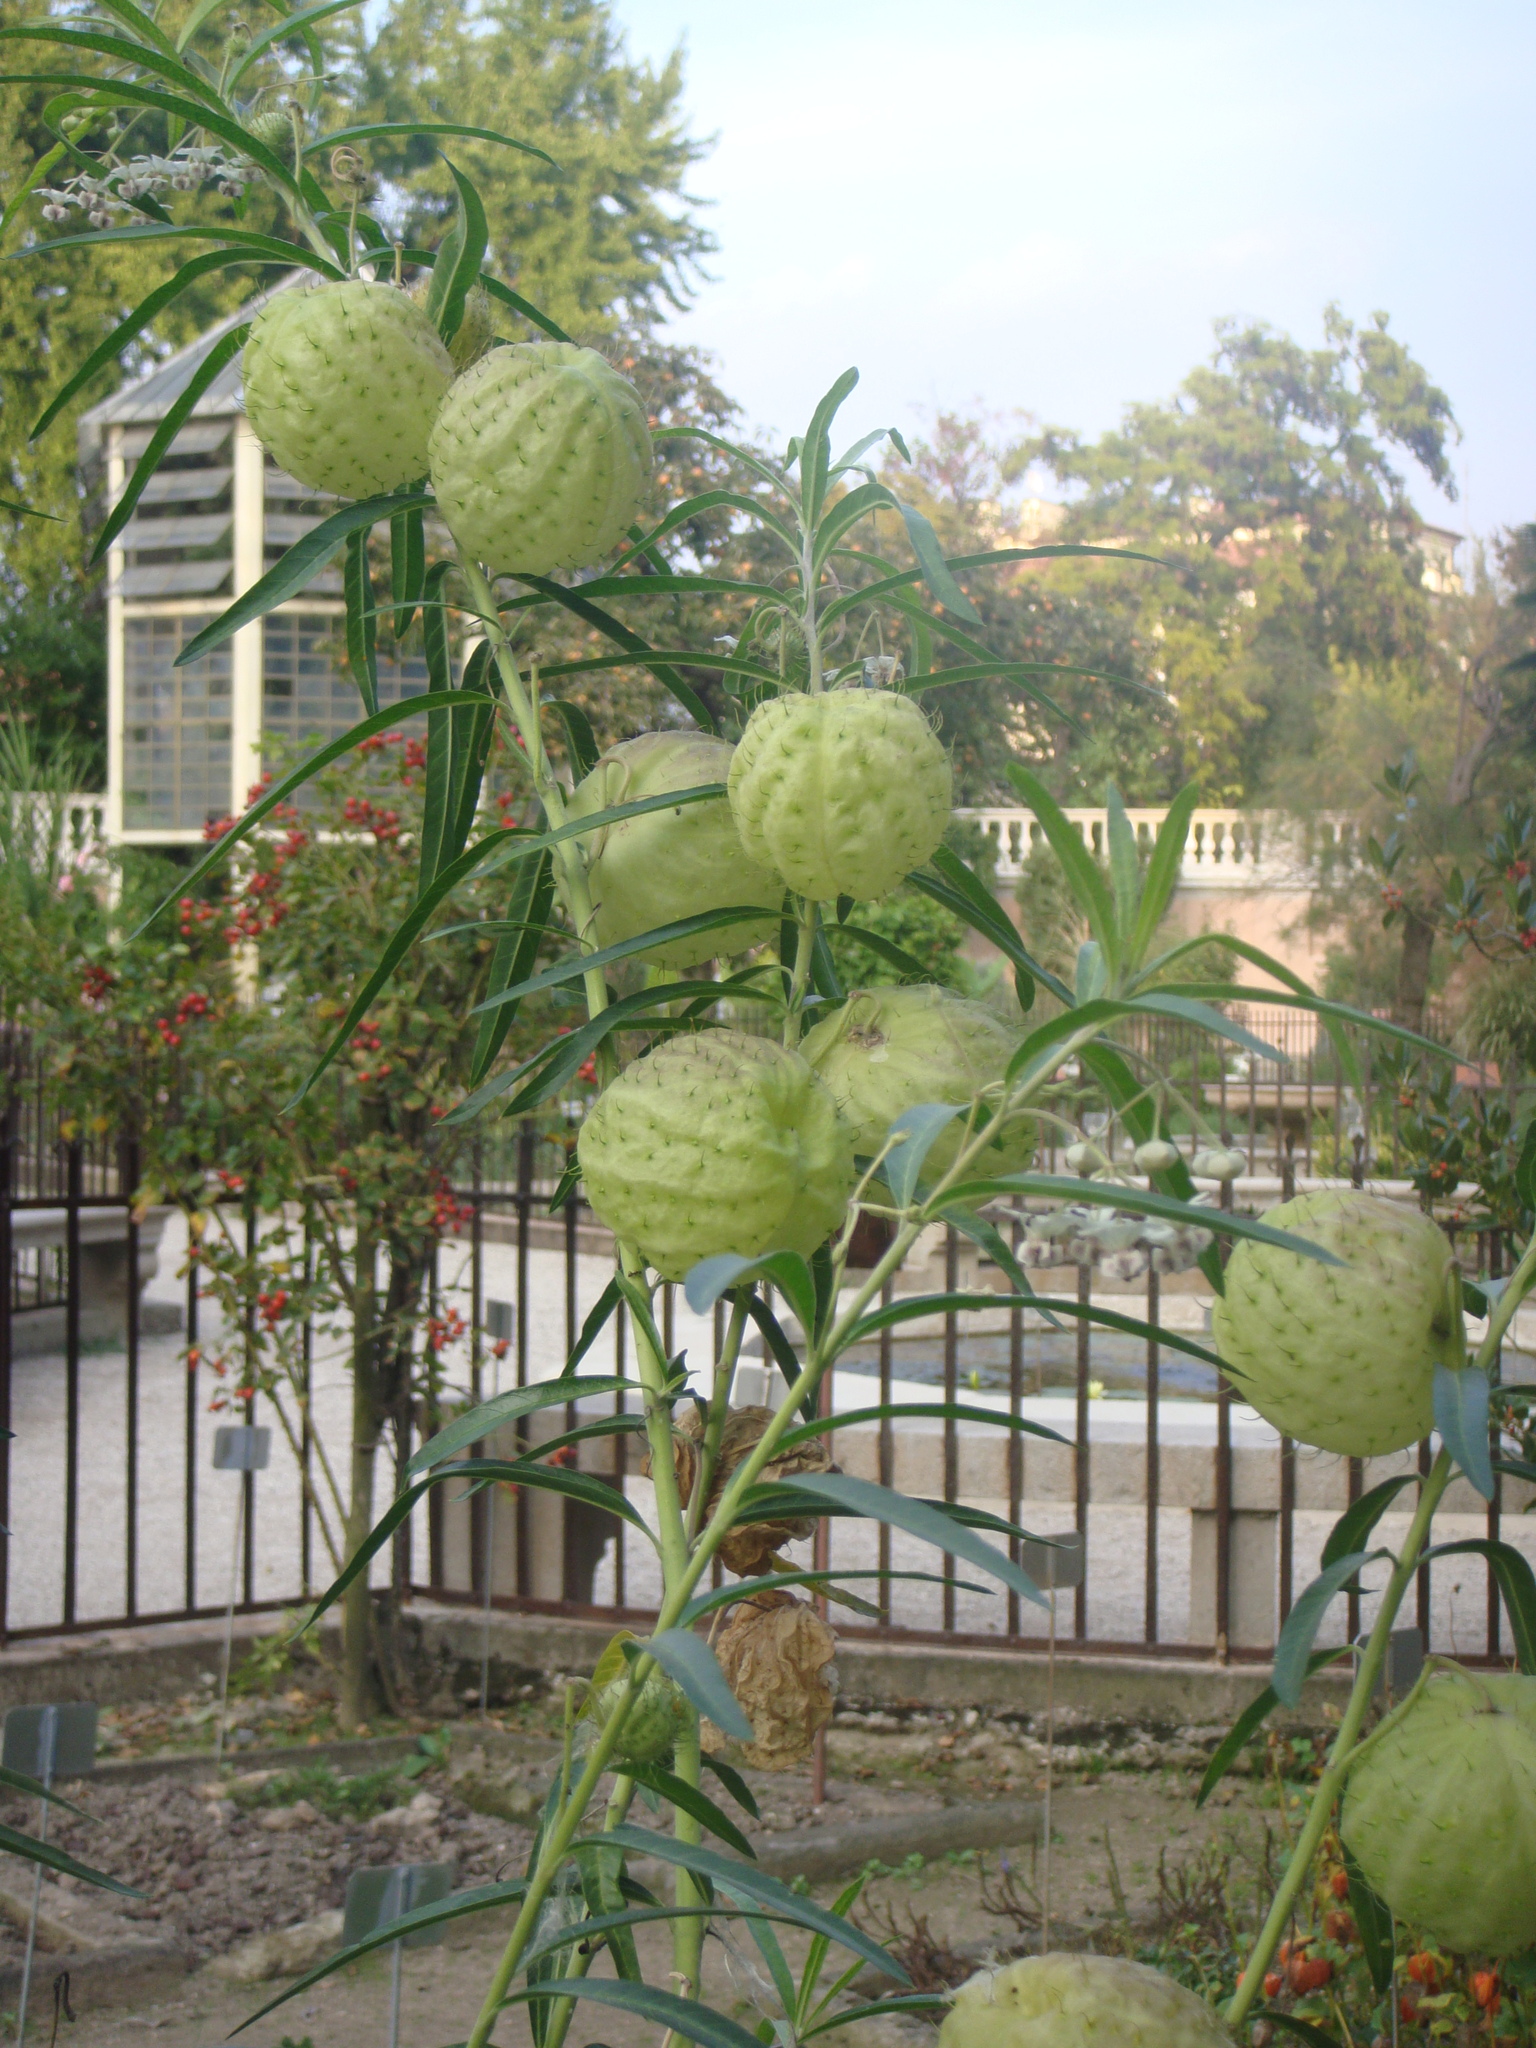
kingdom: Animalia
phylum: Arthropoda
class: Insecta
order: Hemiptera
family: Aphididae
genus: Aphis
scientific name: Aphis nerii
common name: Oleander aphid
